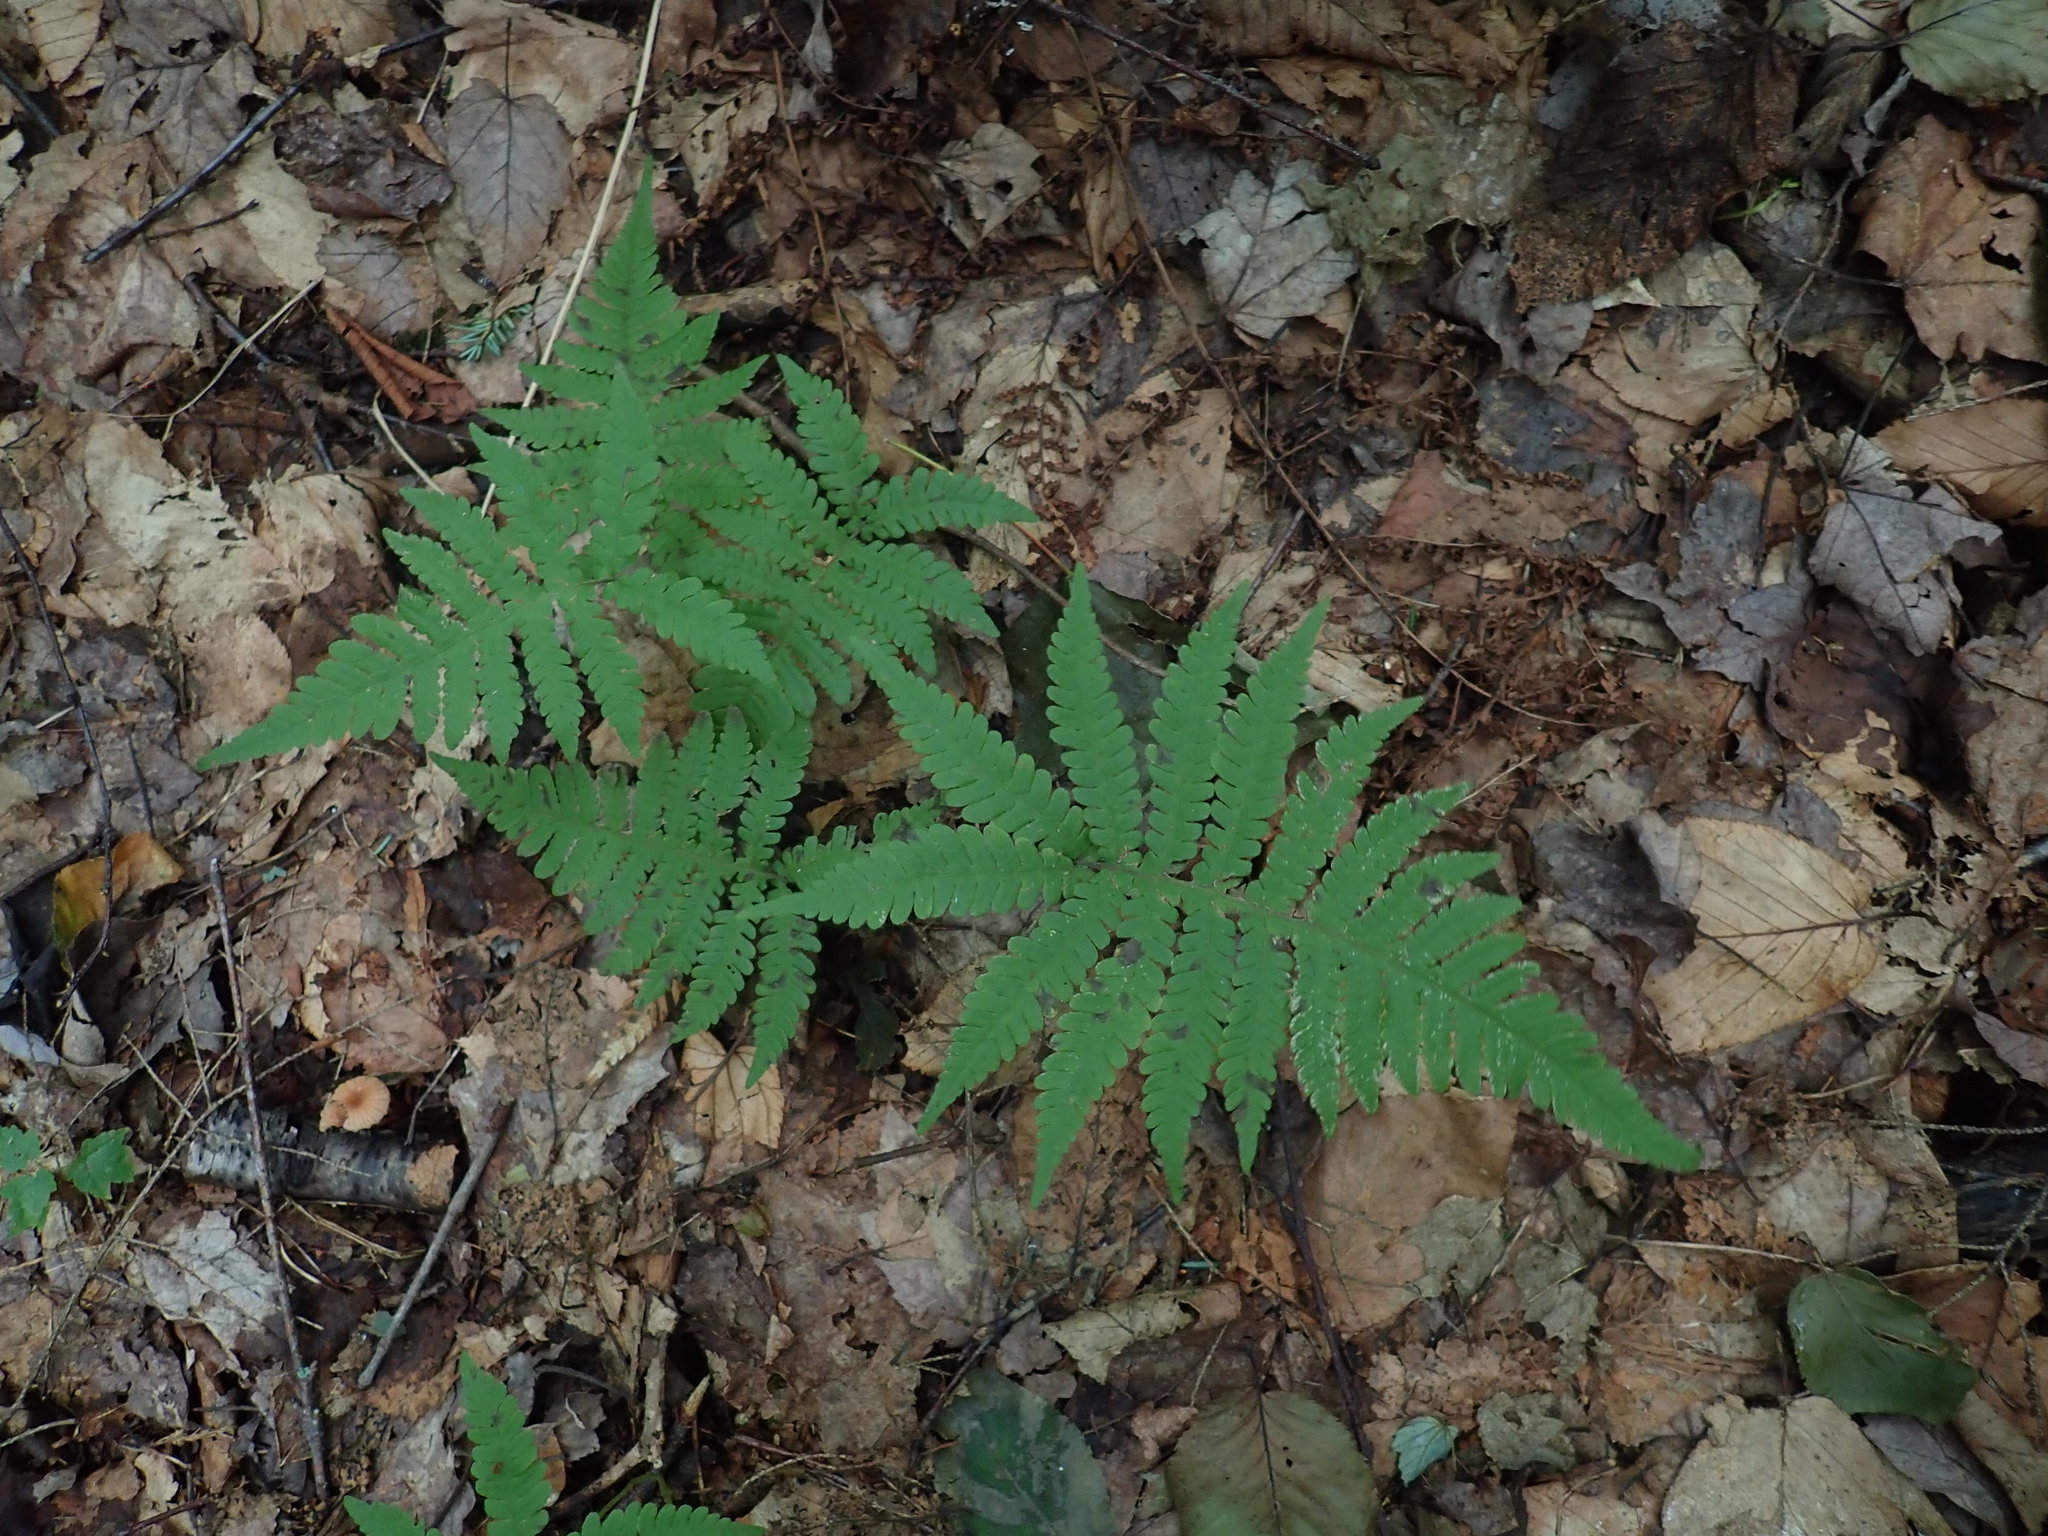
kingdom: Plantae
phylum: Tracheophyta
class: Polypodiopsida
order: Polypodiales
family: Thelypteridaceae
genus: Phegopteris
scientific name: Phegopteris connectilis
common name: Beech fern
